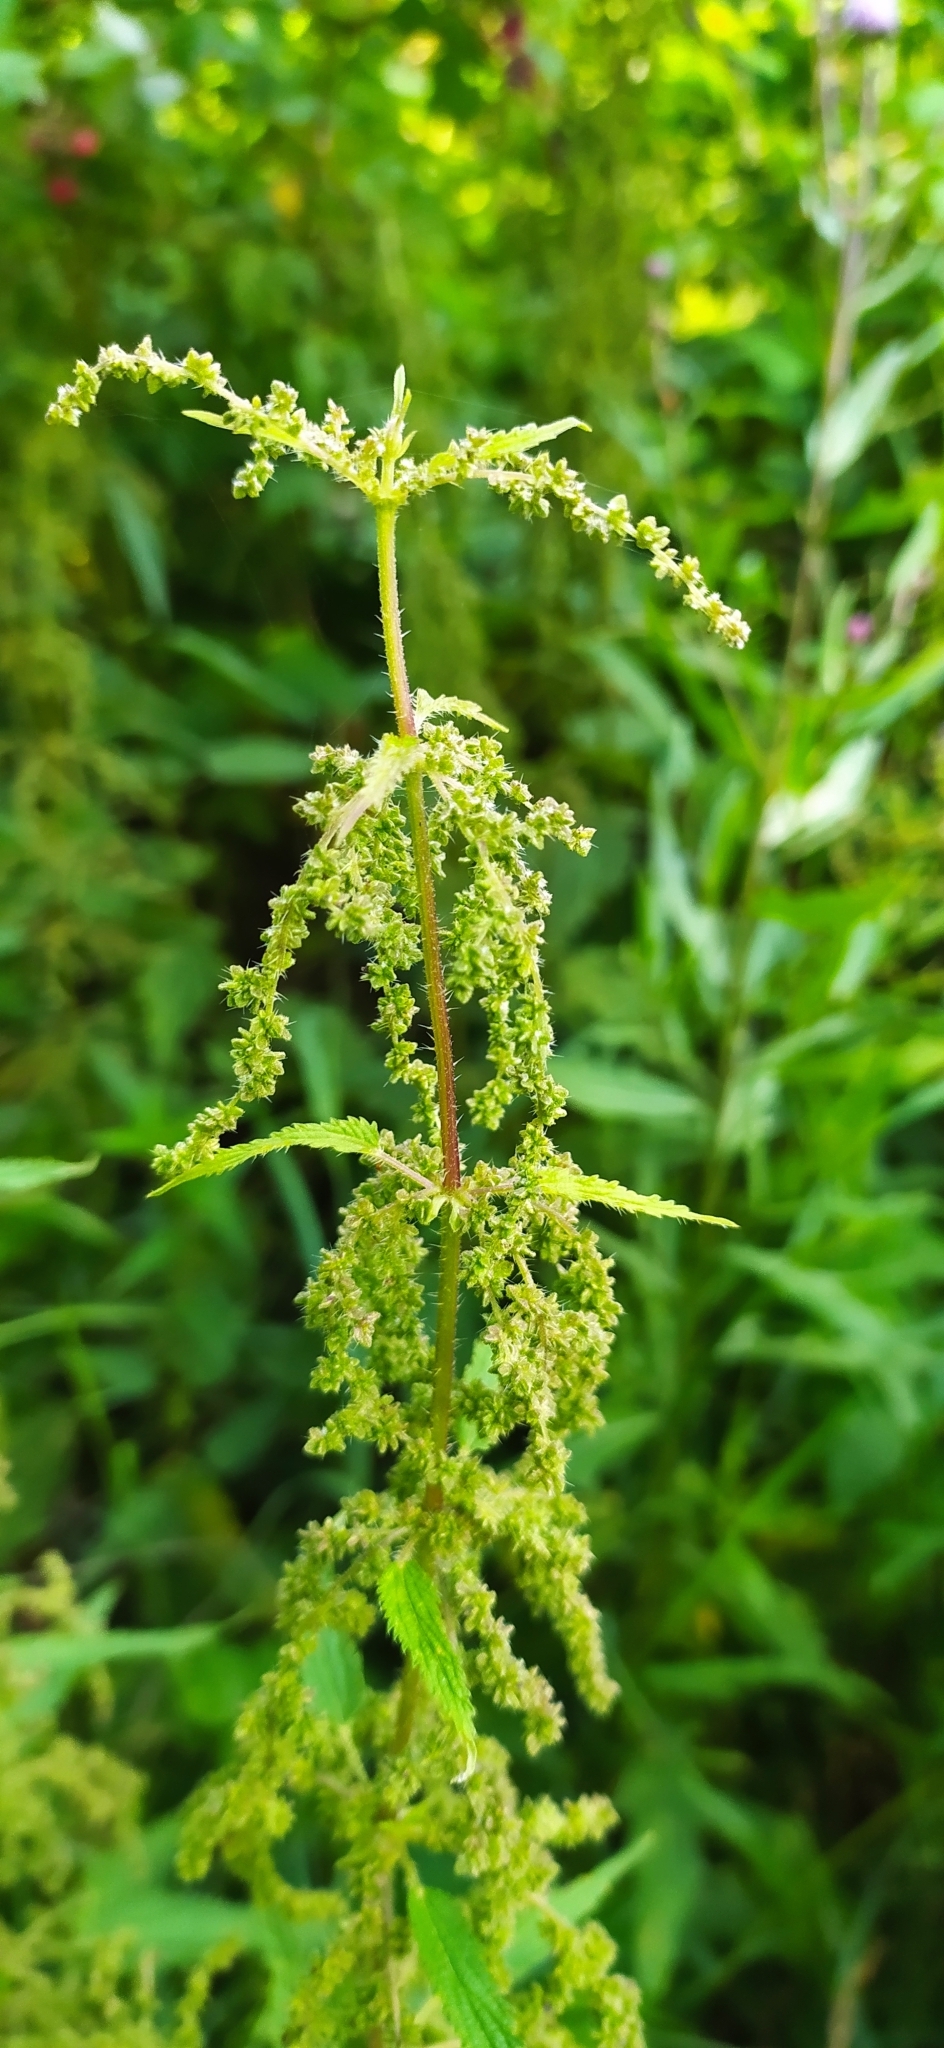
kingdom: Plantae
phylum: Tracheophyta
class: Magnoliopsida
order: Rosales
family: Urticaceae
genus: Urtica
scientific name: Urtica dioica
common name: Common nettle
